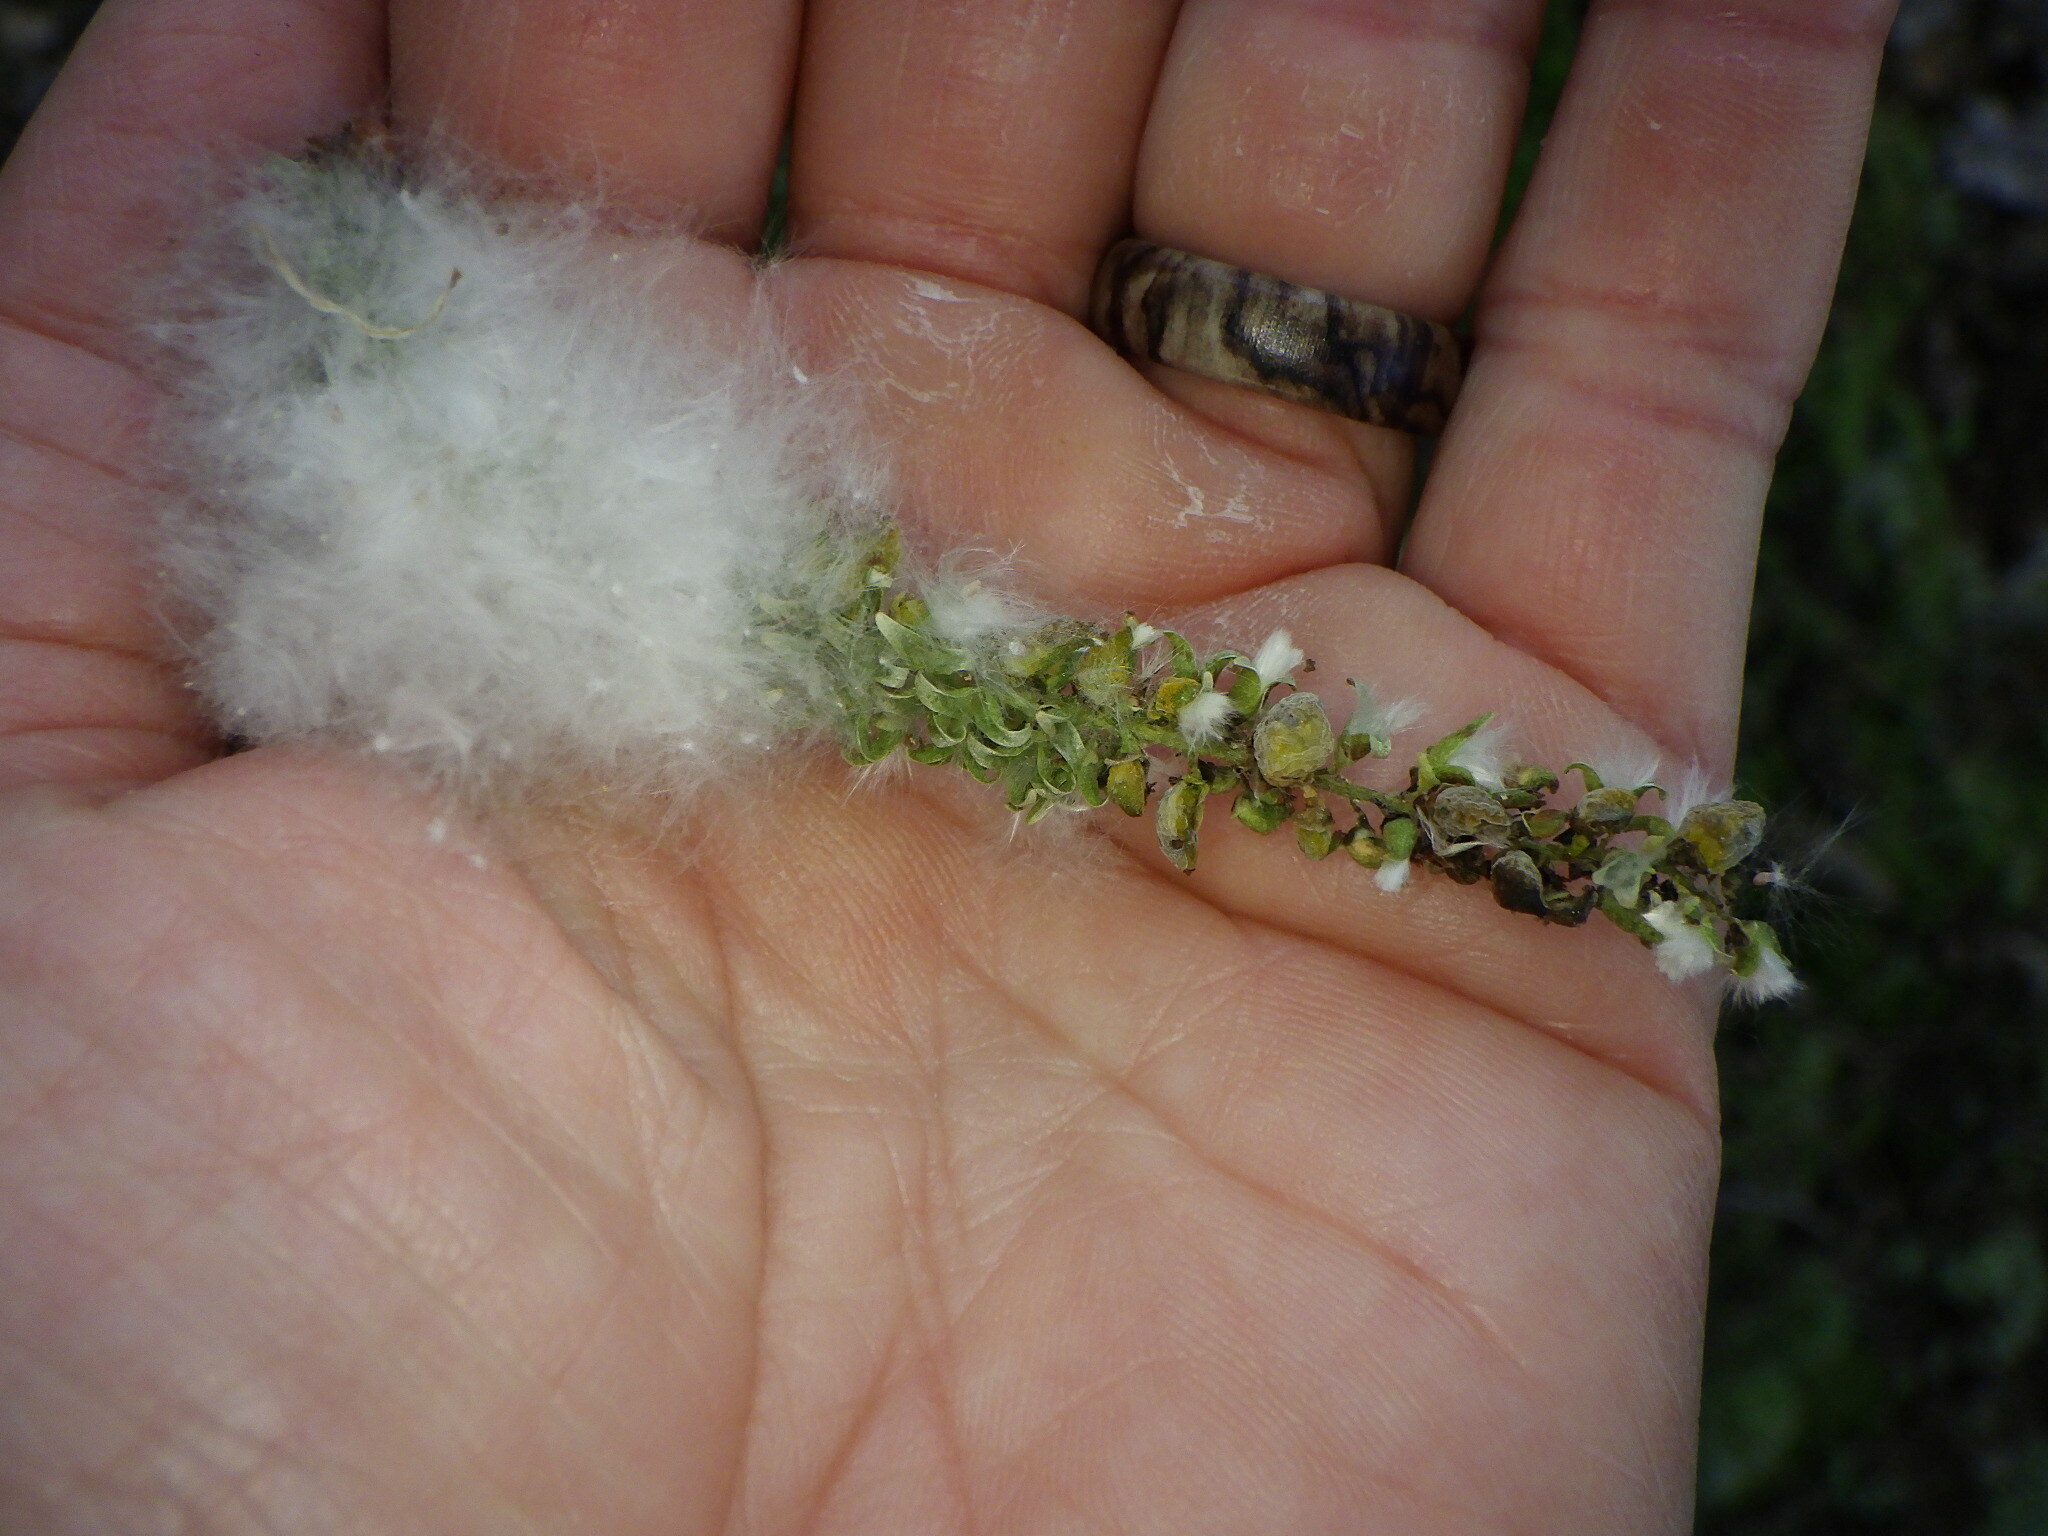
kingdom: Plantae
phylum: Tracheophyta
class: Magnoliopsida
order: Malpighiales
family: Salicaceae
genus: Populus
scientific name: Populus deltoides
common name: Eastern cottonwood
